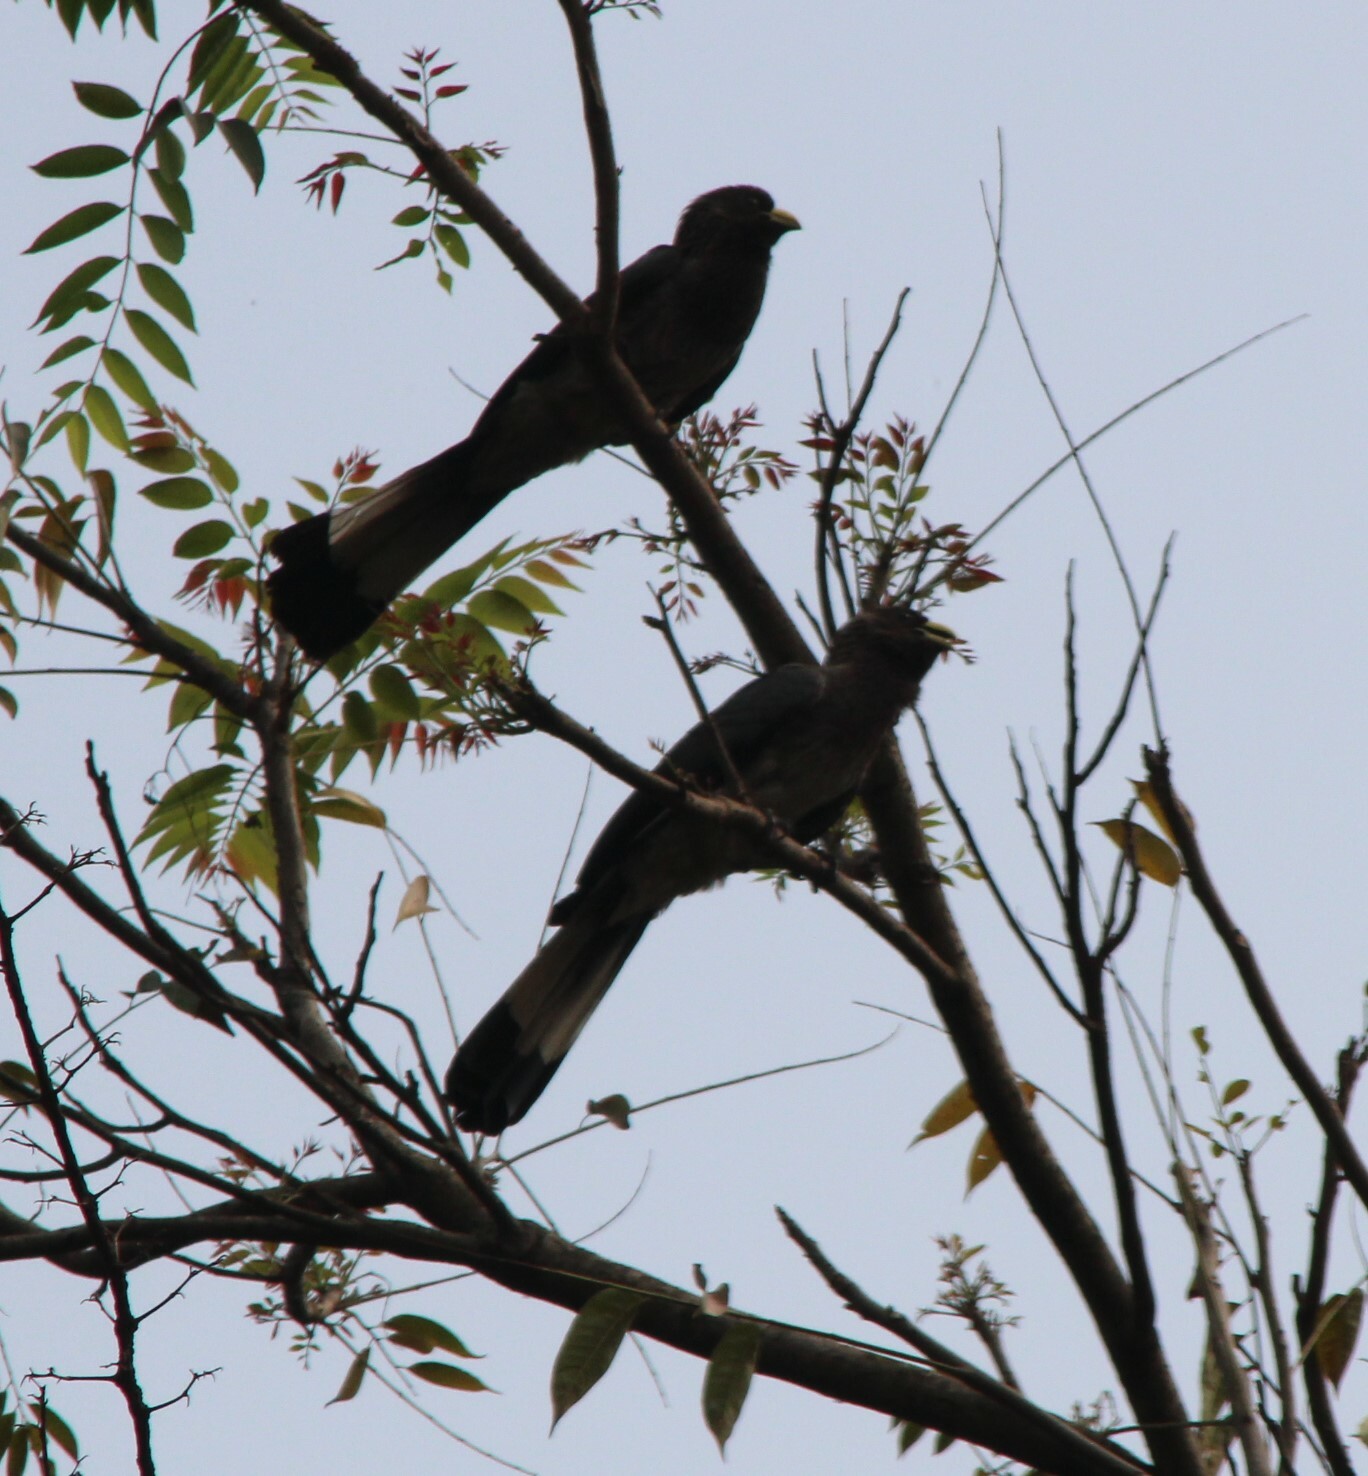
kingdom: Animalia
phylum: Chordata
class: Aves
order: Musophagiformes
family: Musophagidae
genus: Crinifer
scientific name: Crinifer zonurus
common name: Eastern plantain-eater
